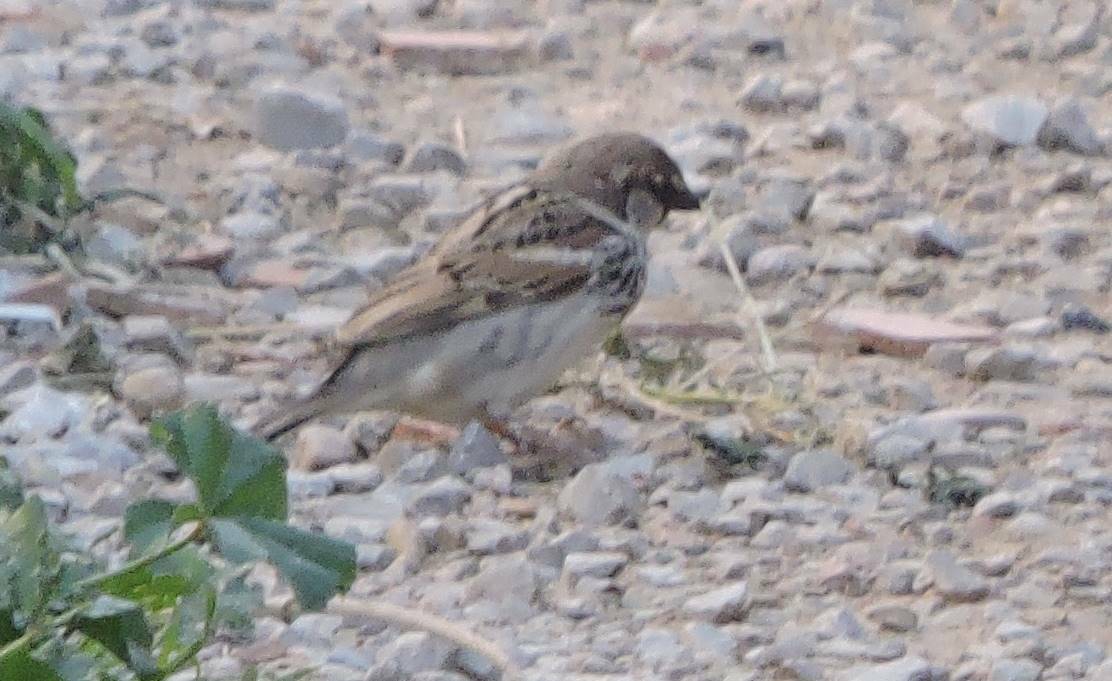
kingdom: Animalia
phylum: Chordata
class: Aves
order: Passeriformes
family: Passeridae
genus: Passer
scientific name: Passer domesticus
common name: House sparrow
